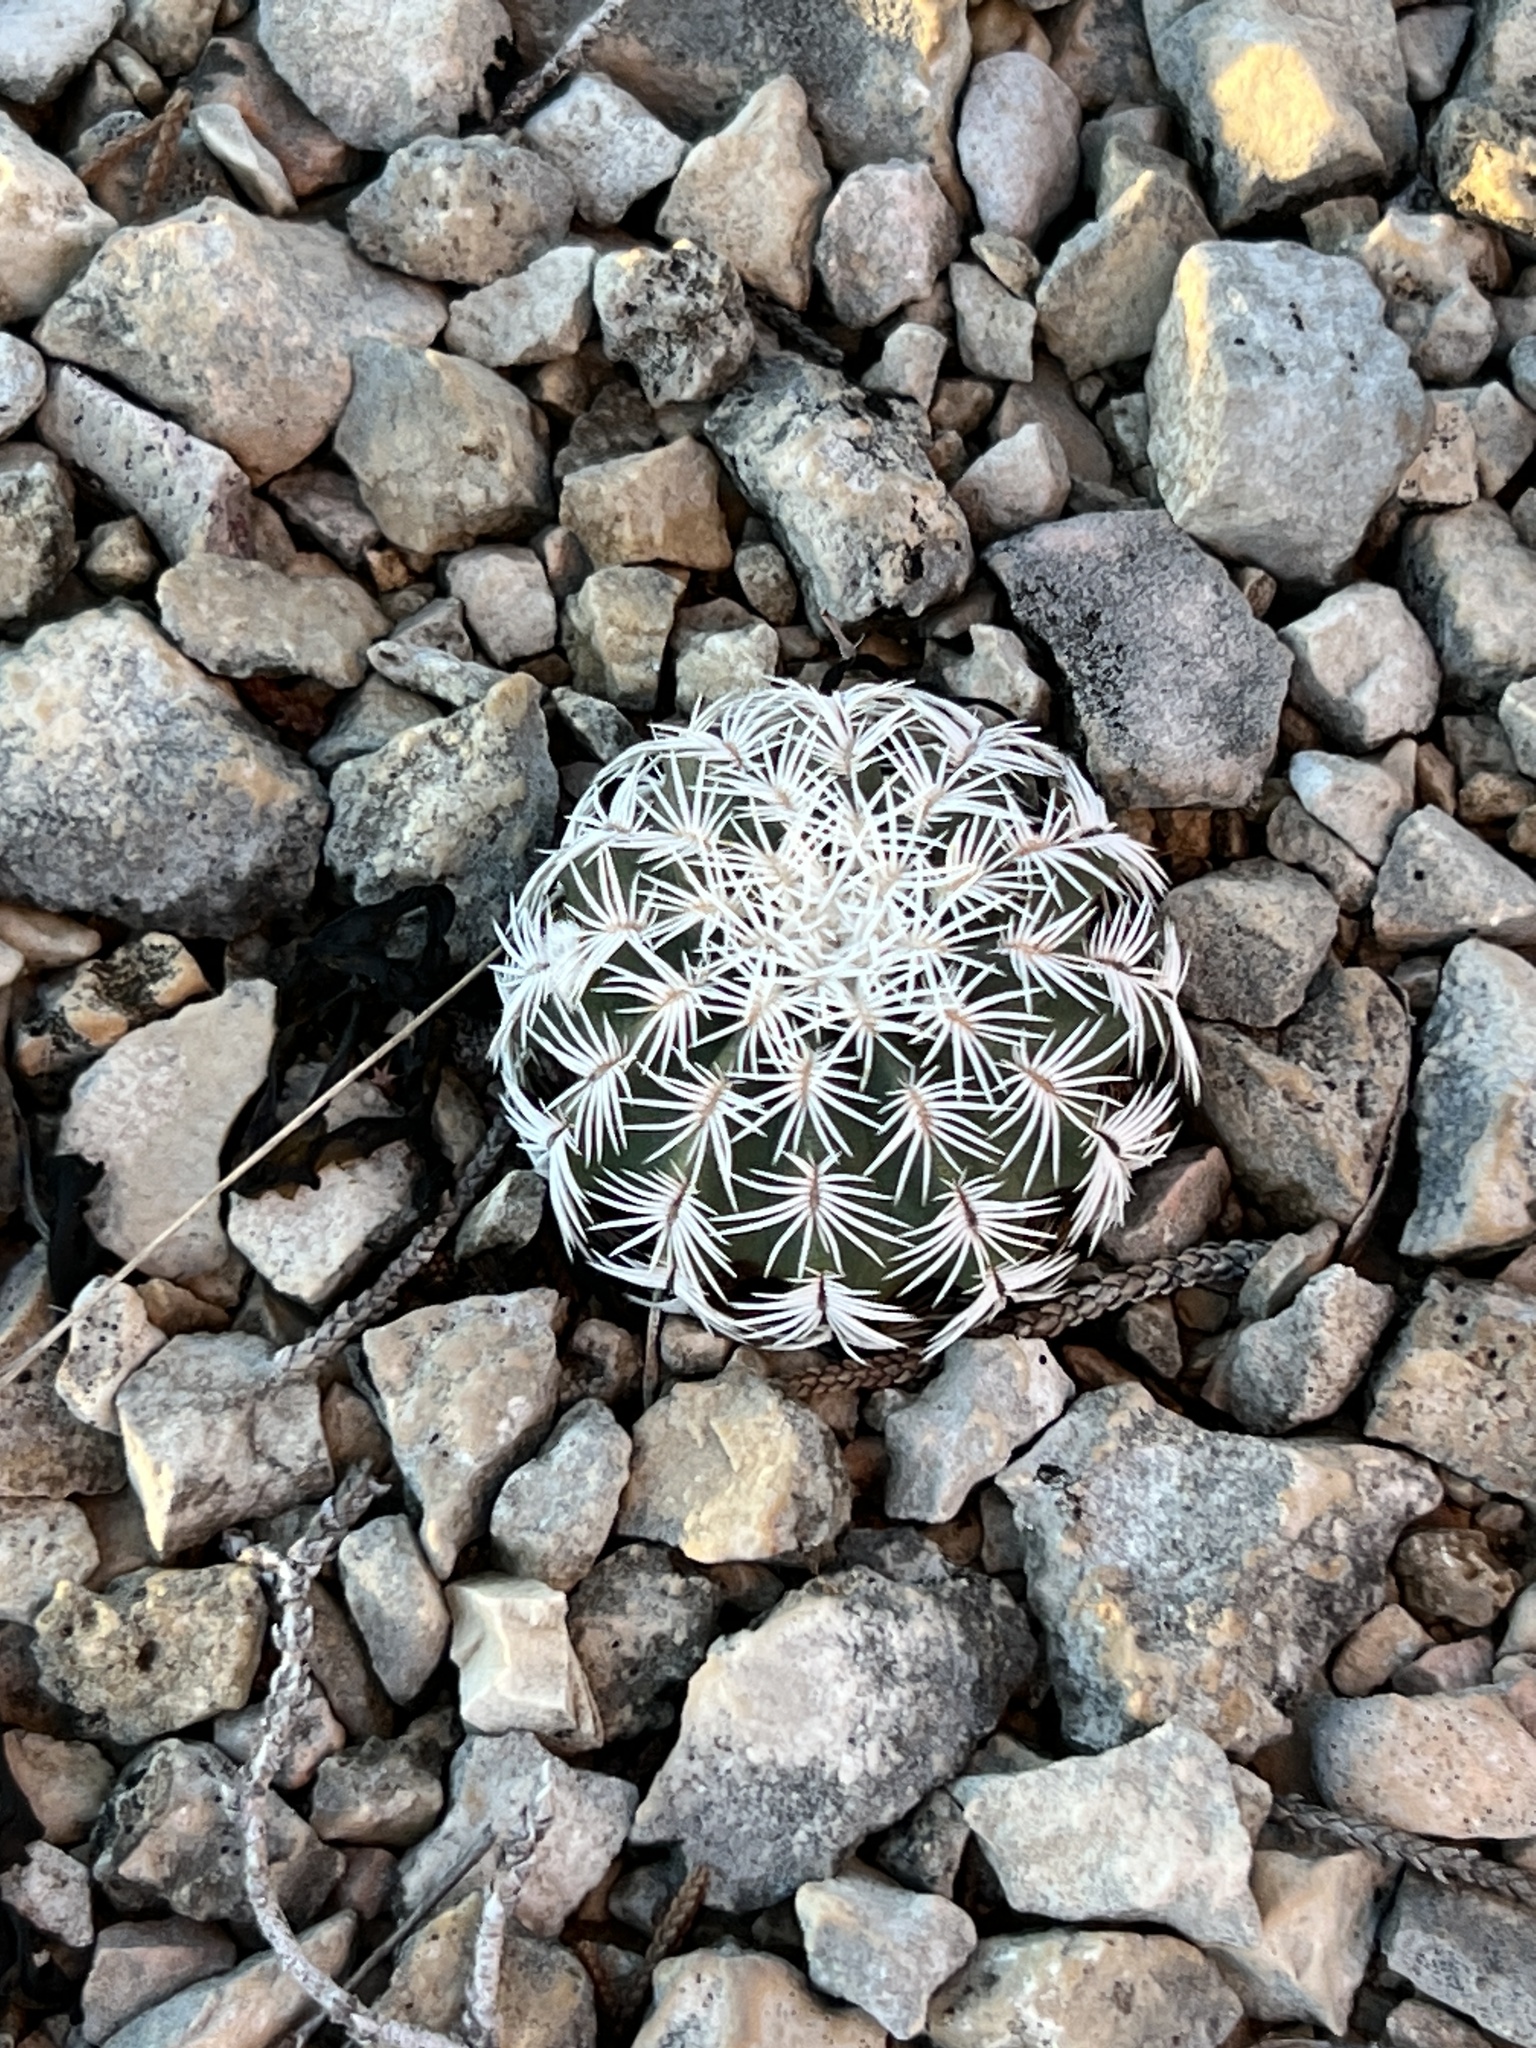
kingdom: Plantae
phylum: Tracheophyta
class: Magnoliopsida
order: Caryophyllales
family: Cactaceae
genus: Echinocereus
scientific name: Echinocereus reichenbachii
